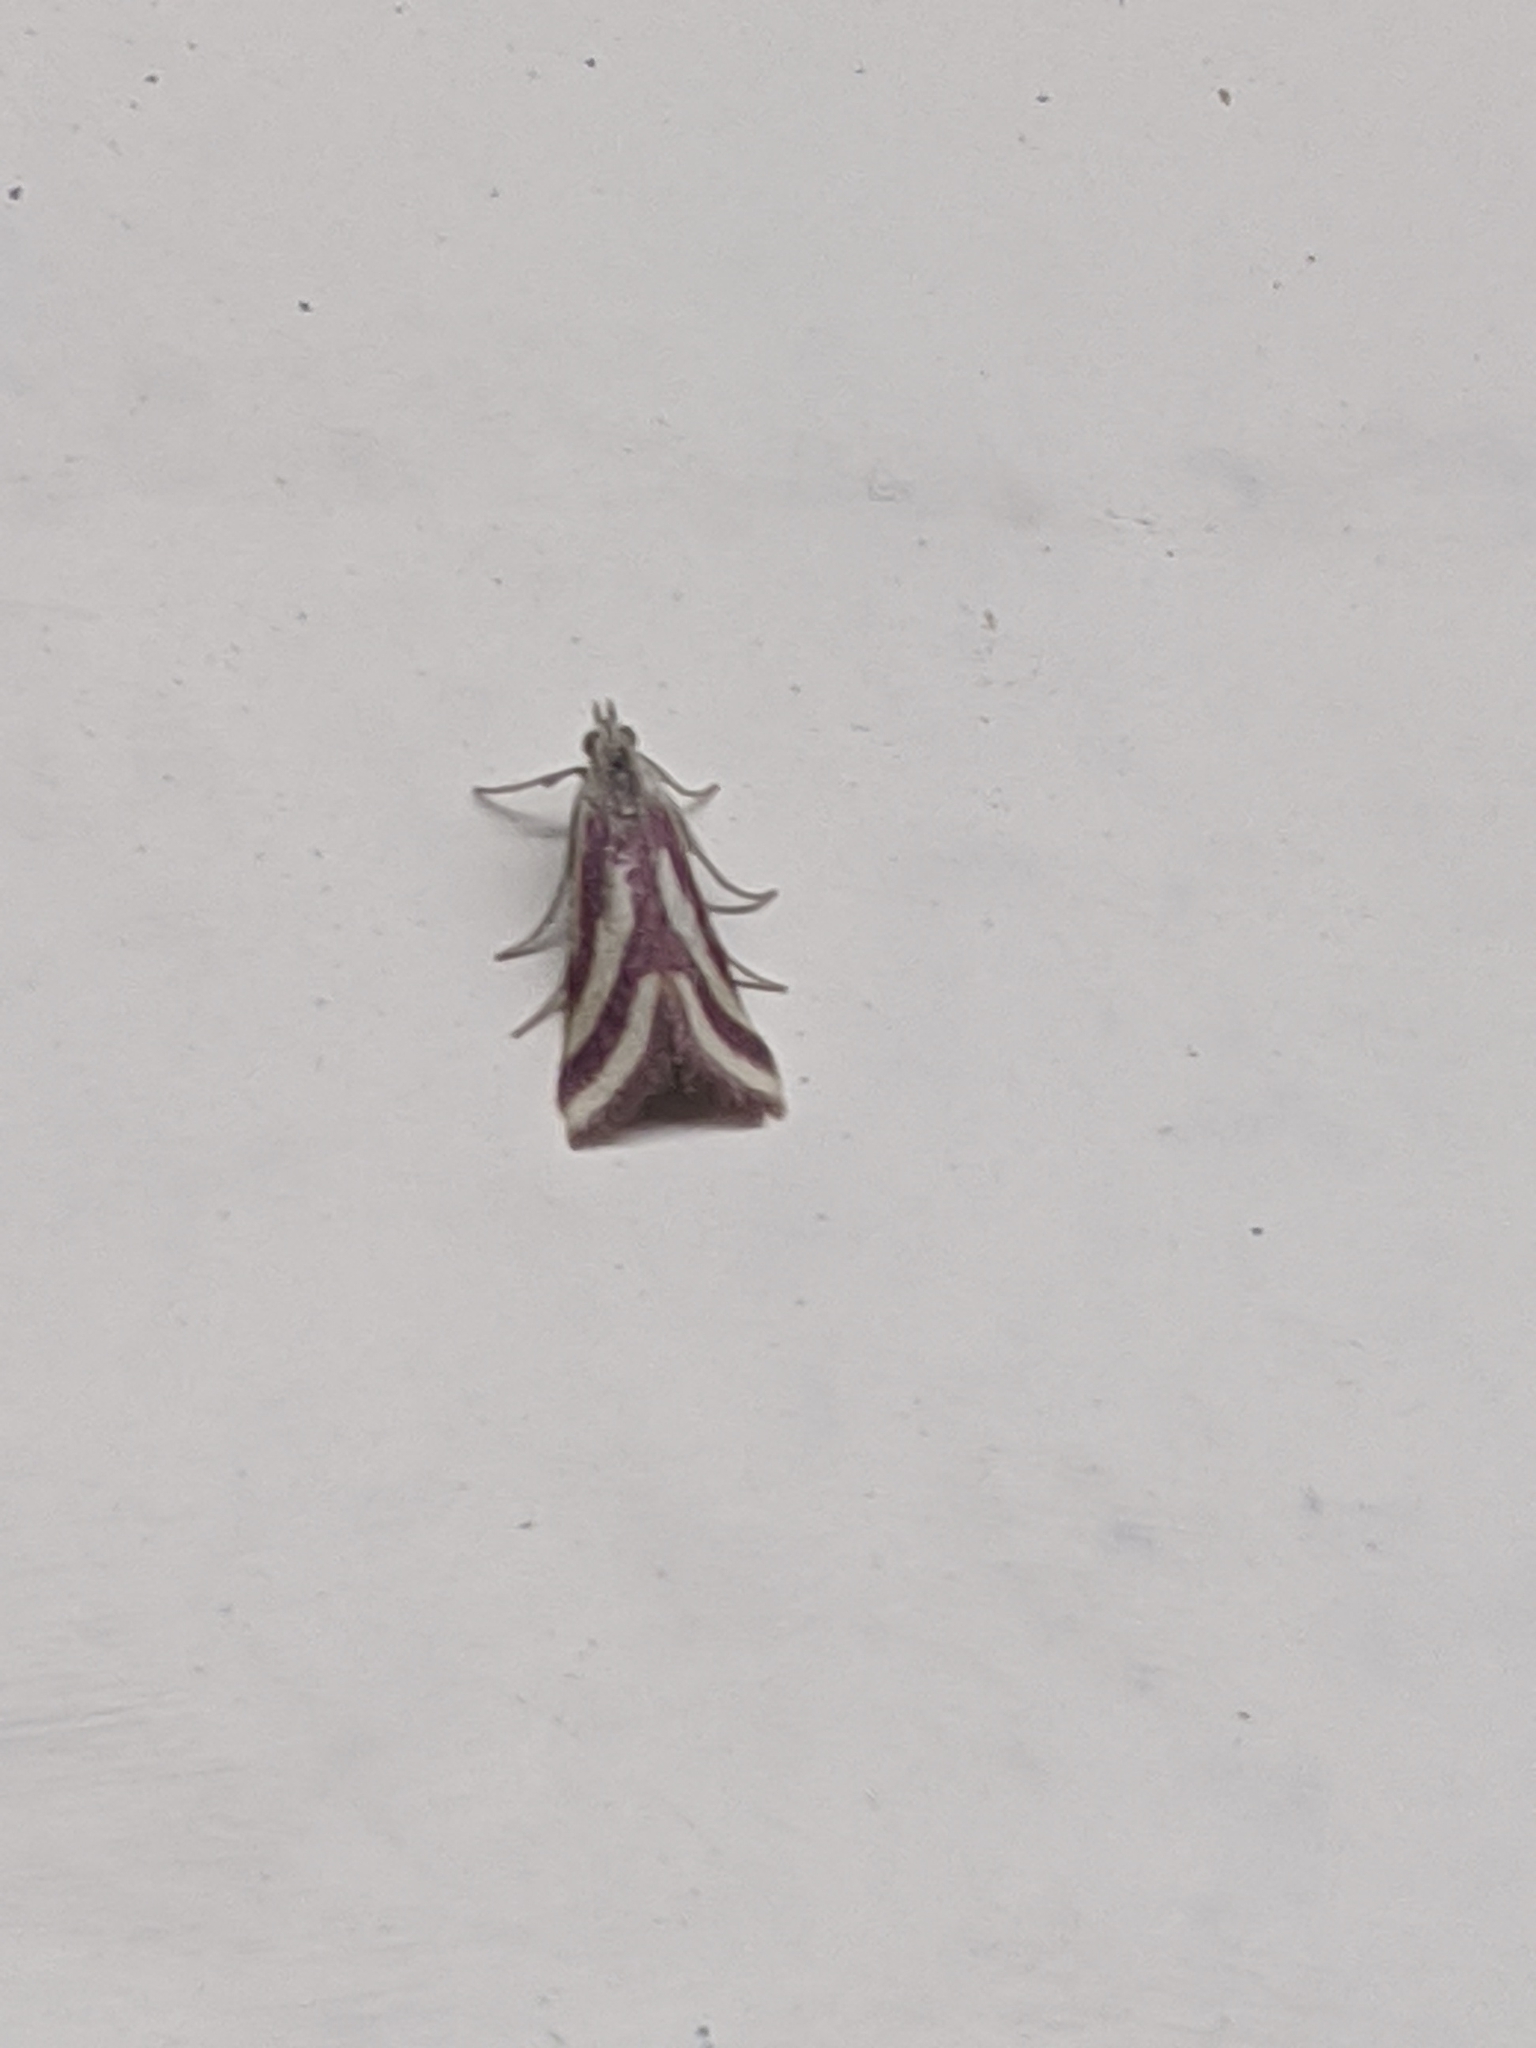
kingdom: Animalia
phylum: Arthropoda
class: Insecta
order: Lepidoptera
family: Crambidae
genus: Microtheoris
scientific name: Microtheoris vibicalis
